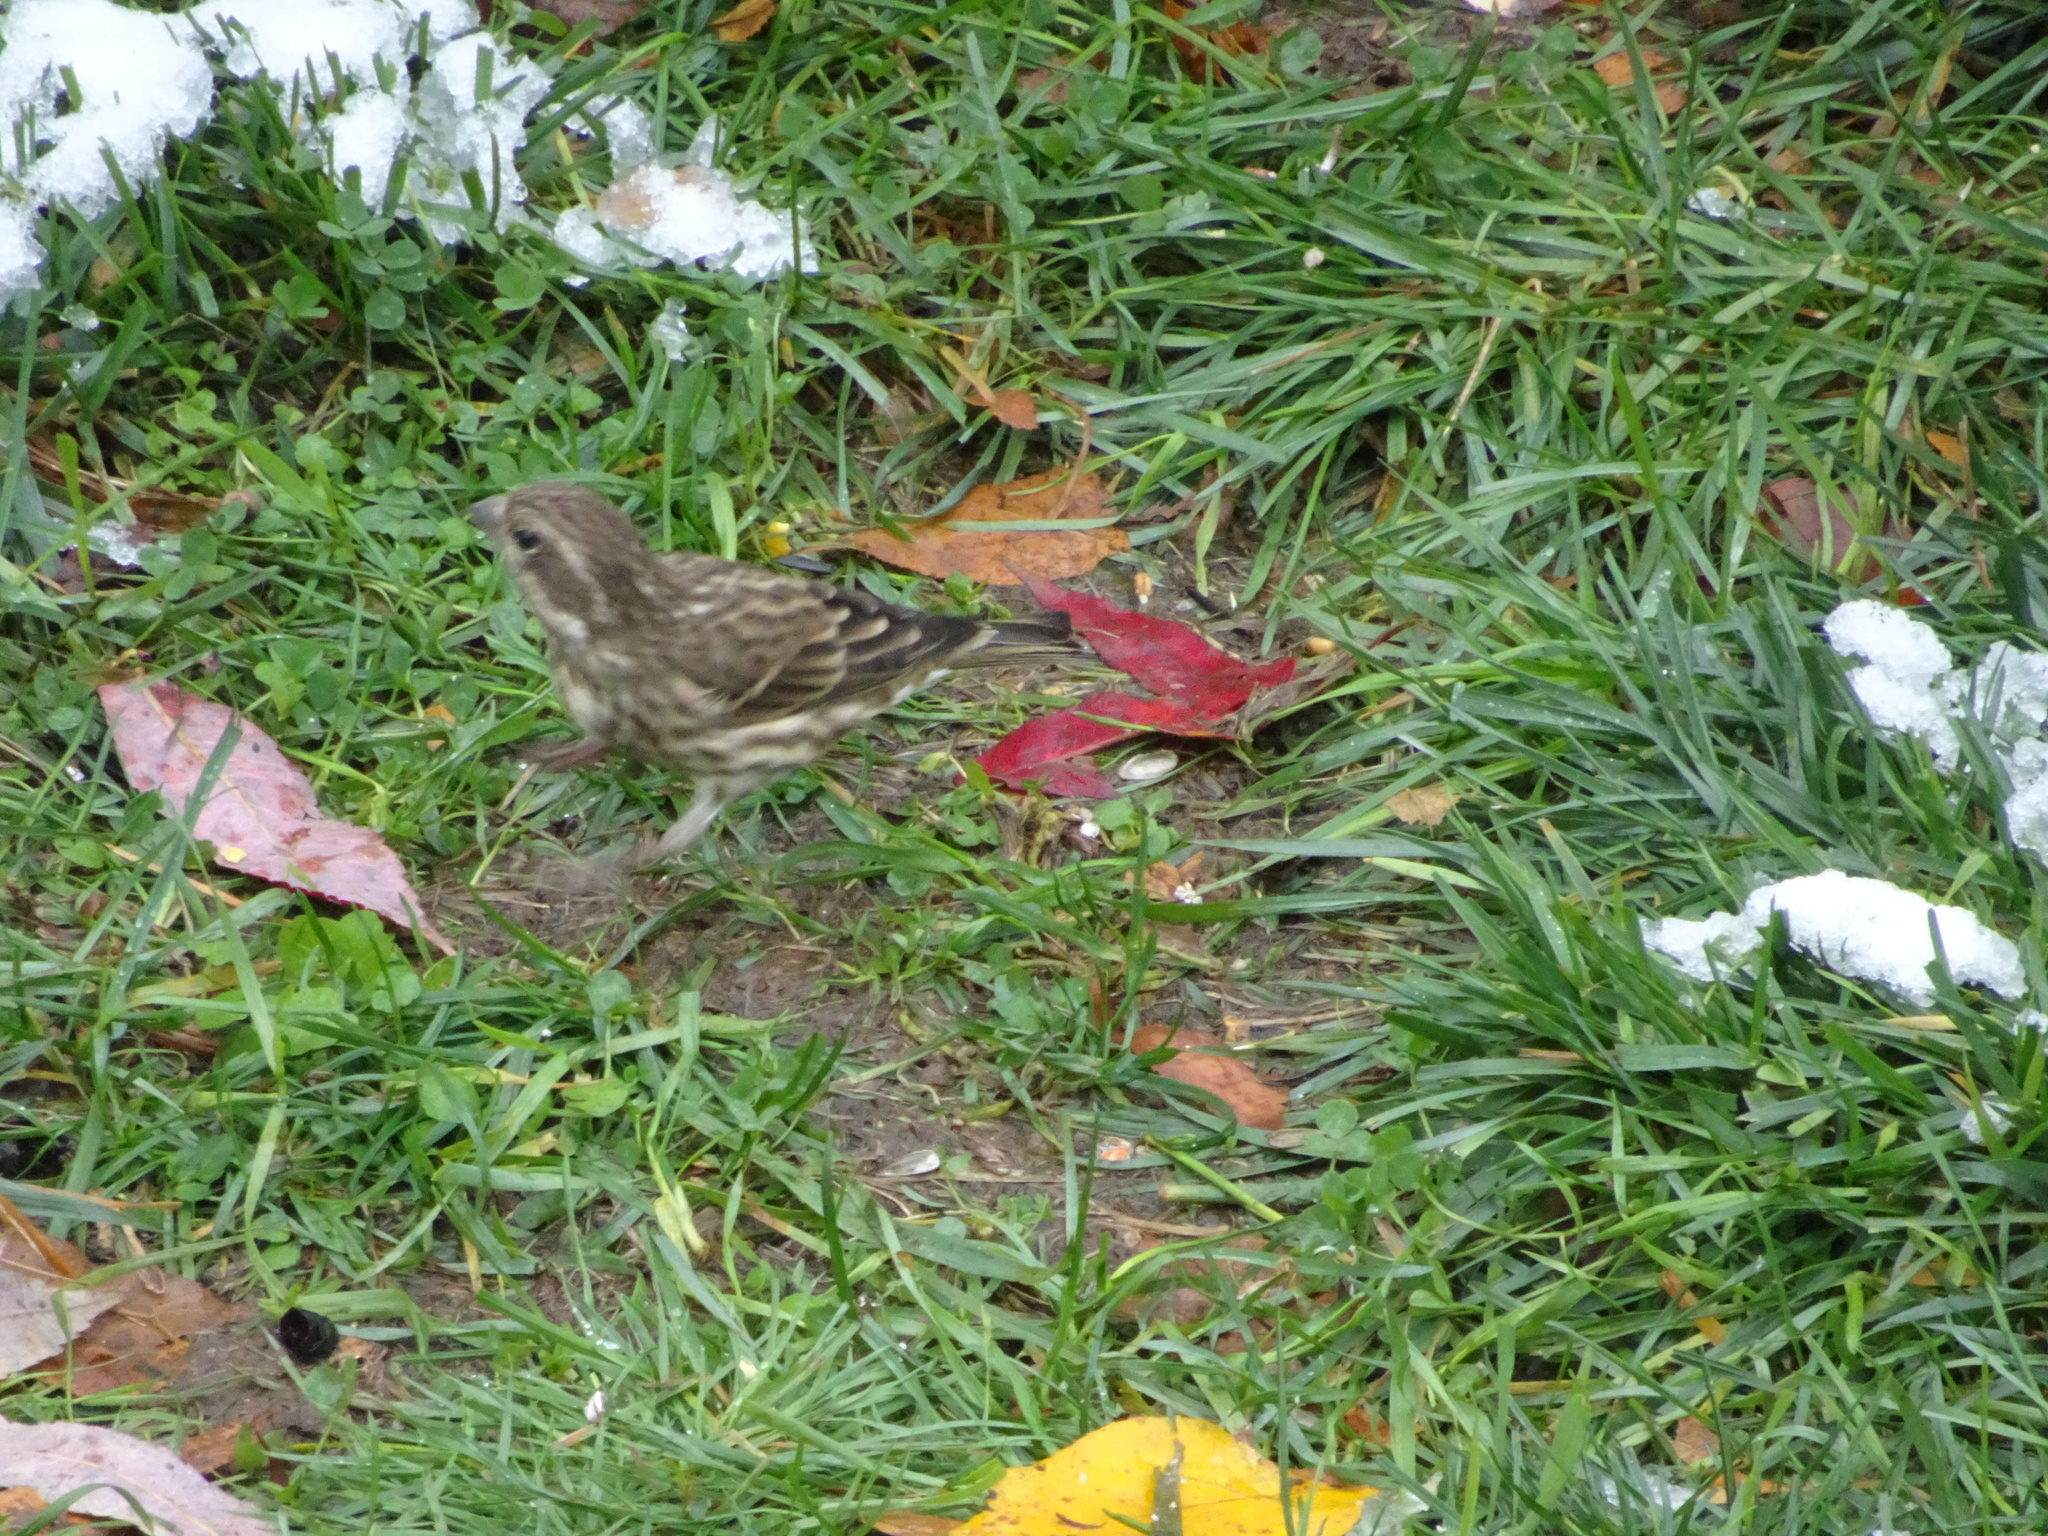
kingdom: Animalia
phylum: Chordata
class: Aves
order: Passeriformes
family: Fringillidae
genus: Haemorhous
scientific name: Haemorhous purpureus
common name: Purple finch
